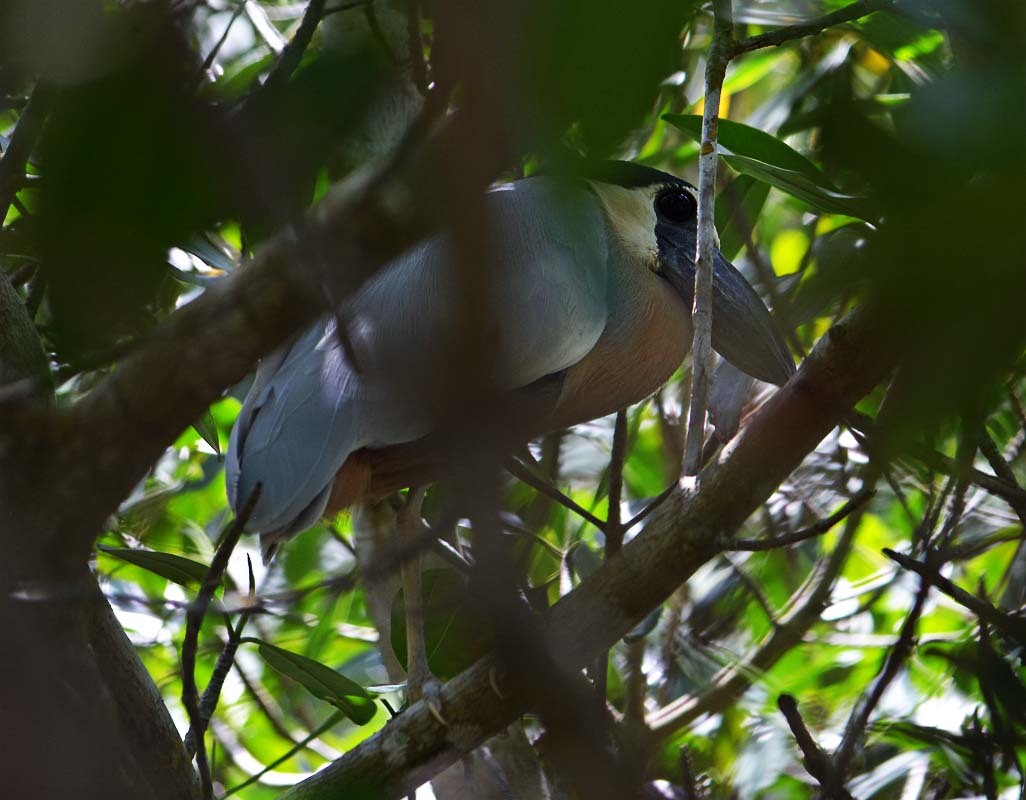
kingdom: Animalia
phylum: Chordata
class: Aves
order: Pelecaniformes
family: Ardeidae
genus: Cochlearius
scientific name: Cochlearius cochlearius
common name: Boat-billed heron
